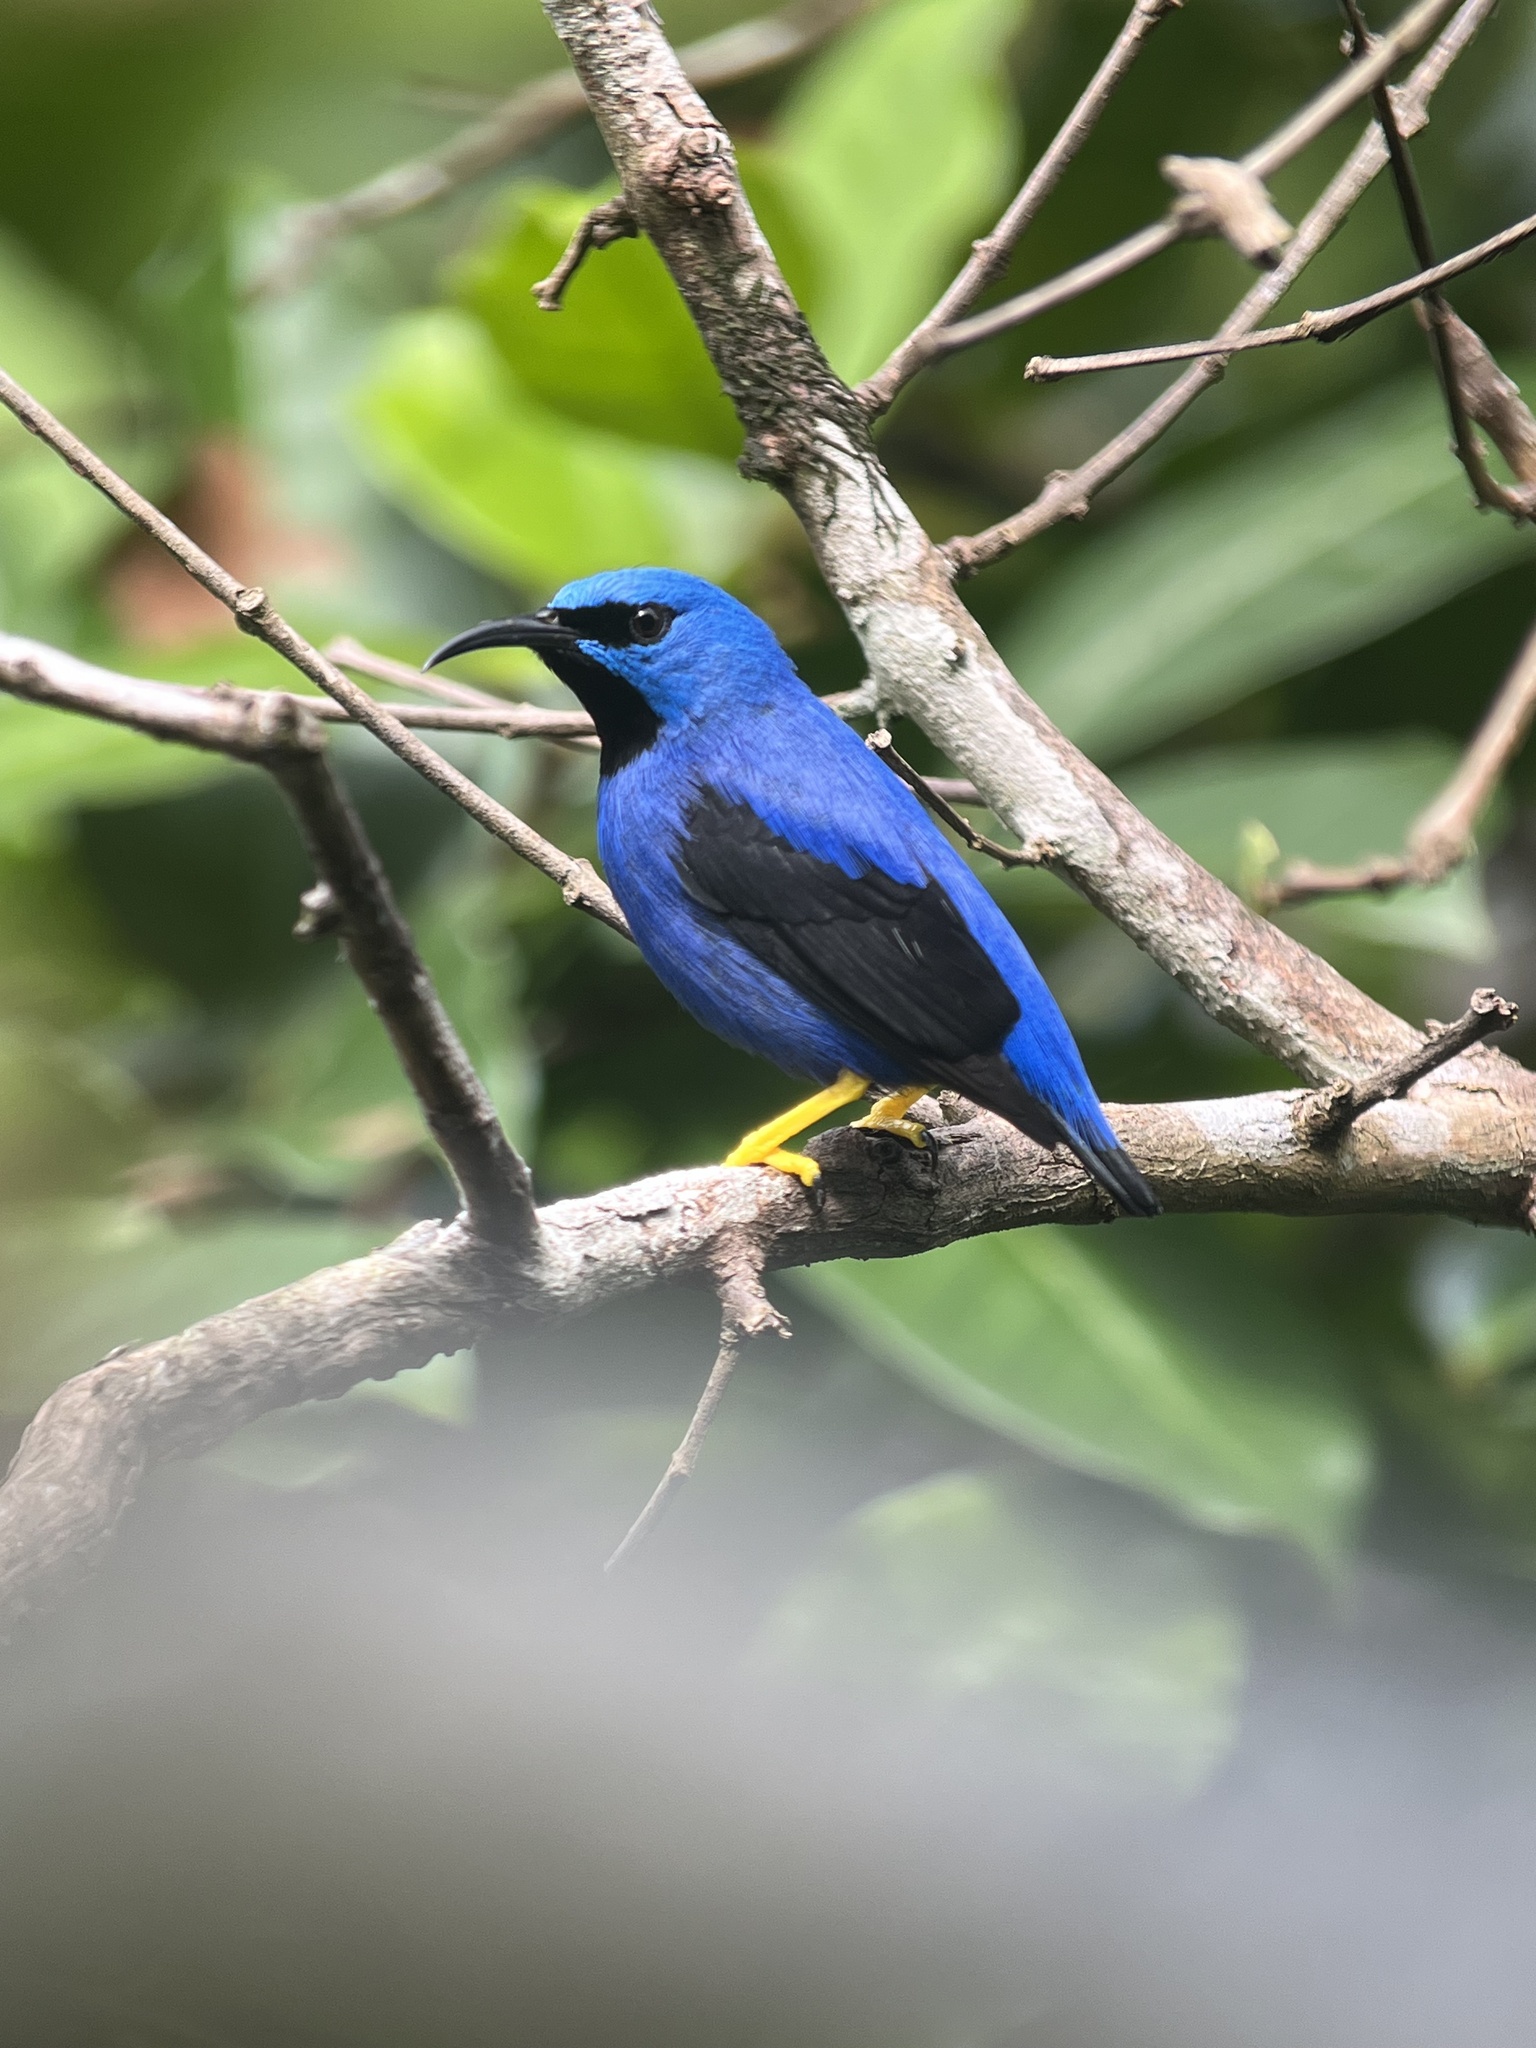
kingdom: Animalia
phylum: Chordata
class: Aves
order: Passeriformes
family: Thraupidae
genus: Cyanerpes
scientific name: Cyanerpes lucidus
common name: Shining honeycreeper
